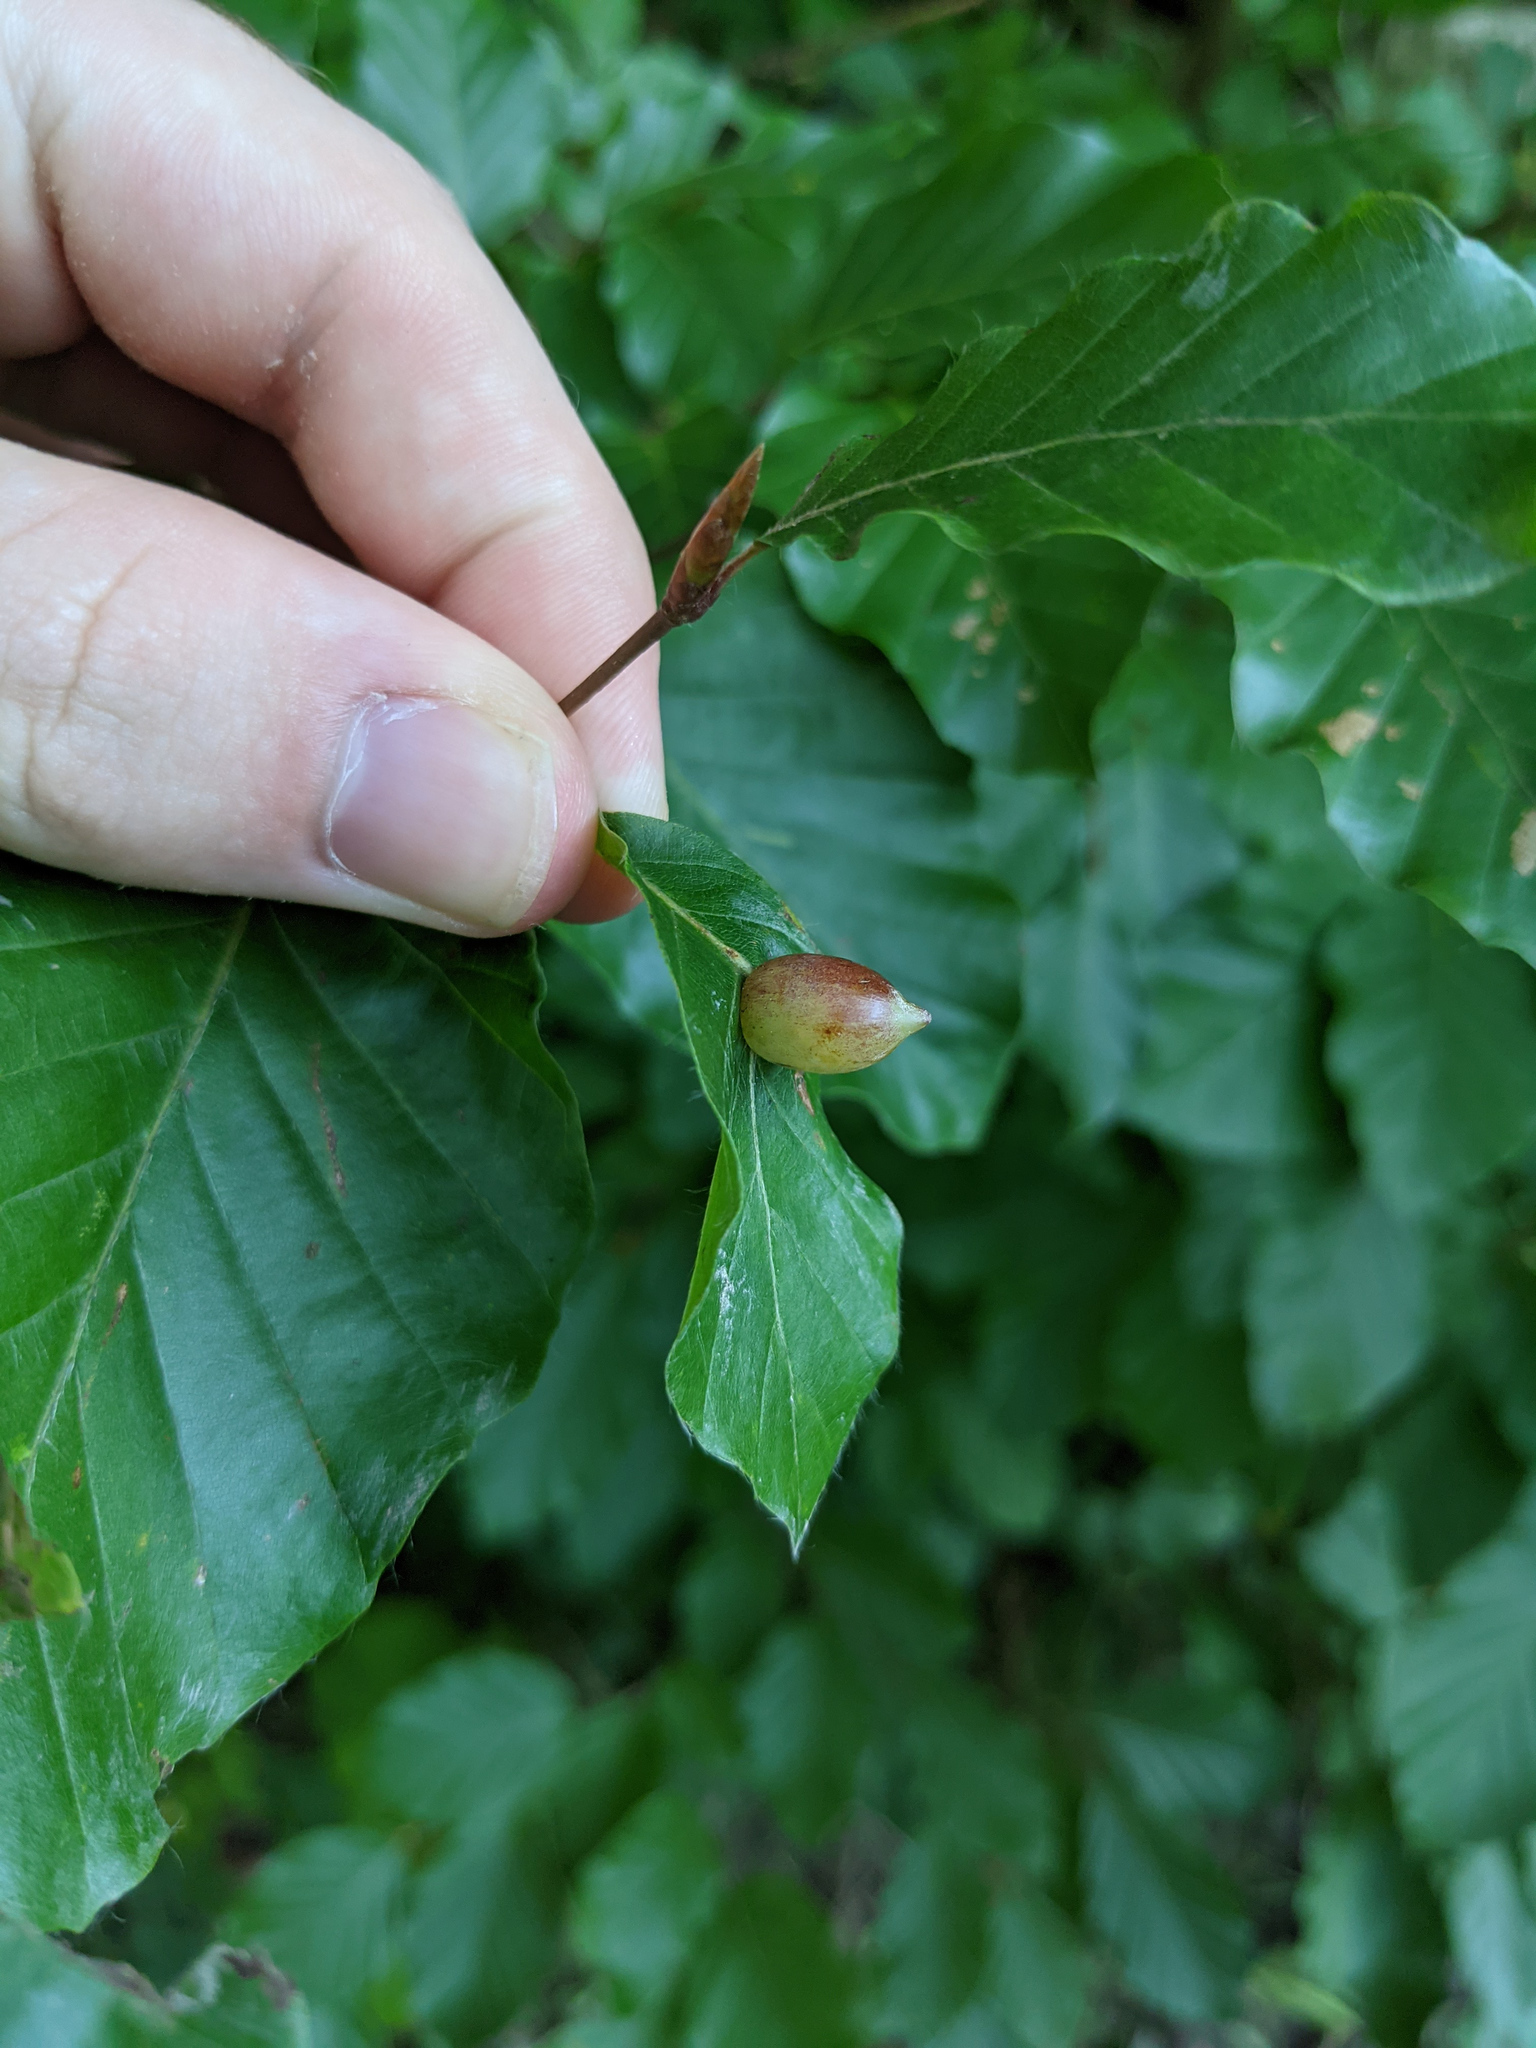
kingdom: Animalia
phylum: Arthropoda
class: Insecta
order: Diptera
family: Cecidomyiidae
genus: Mikiola
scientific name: Mikiola fagi
